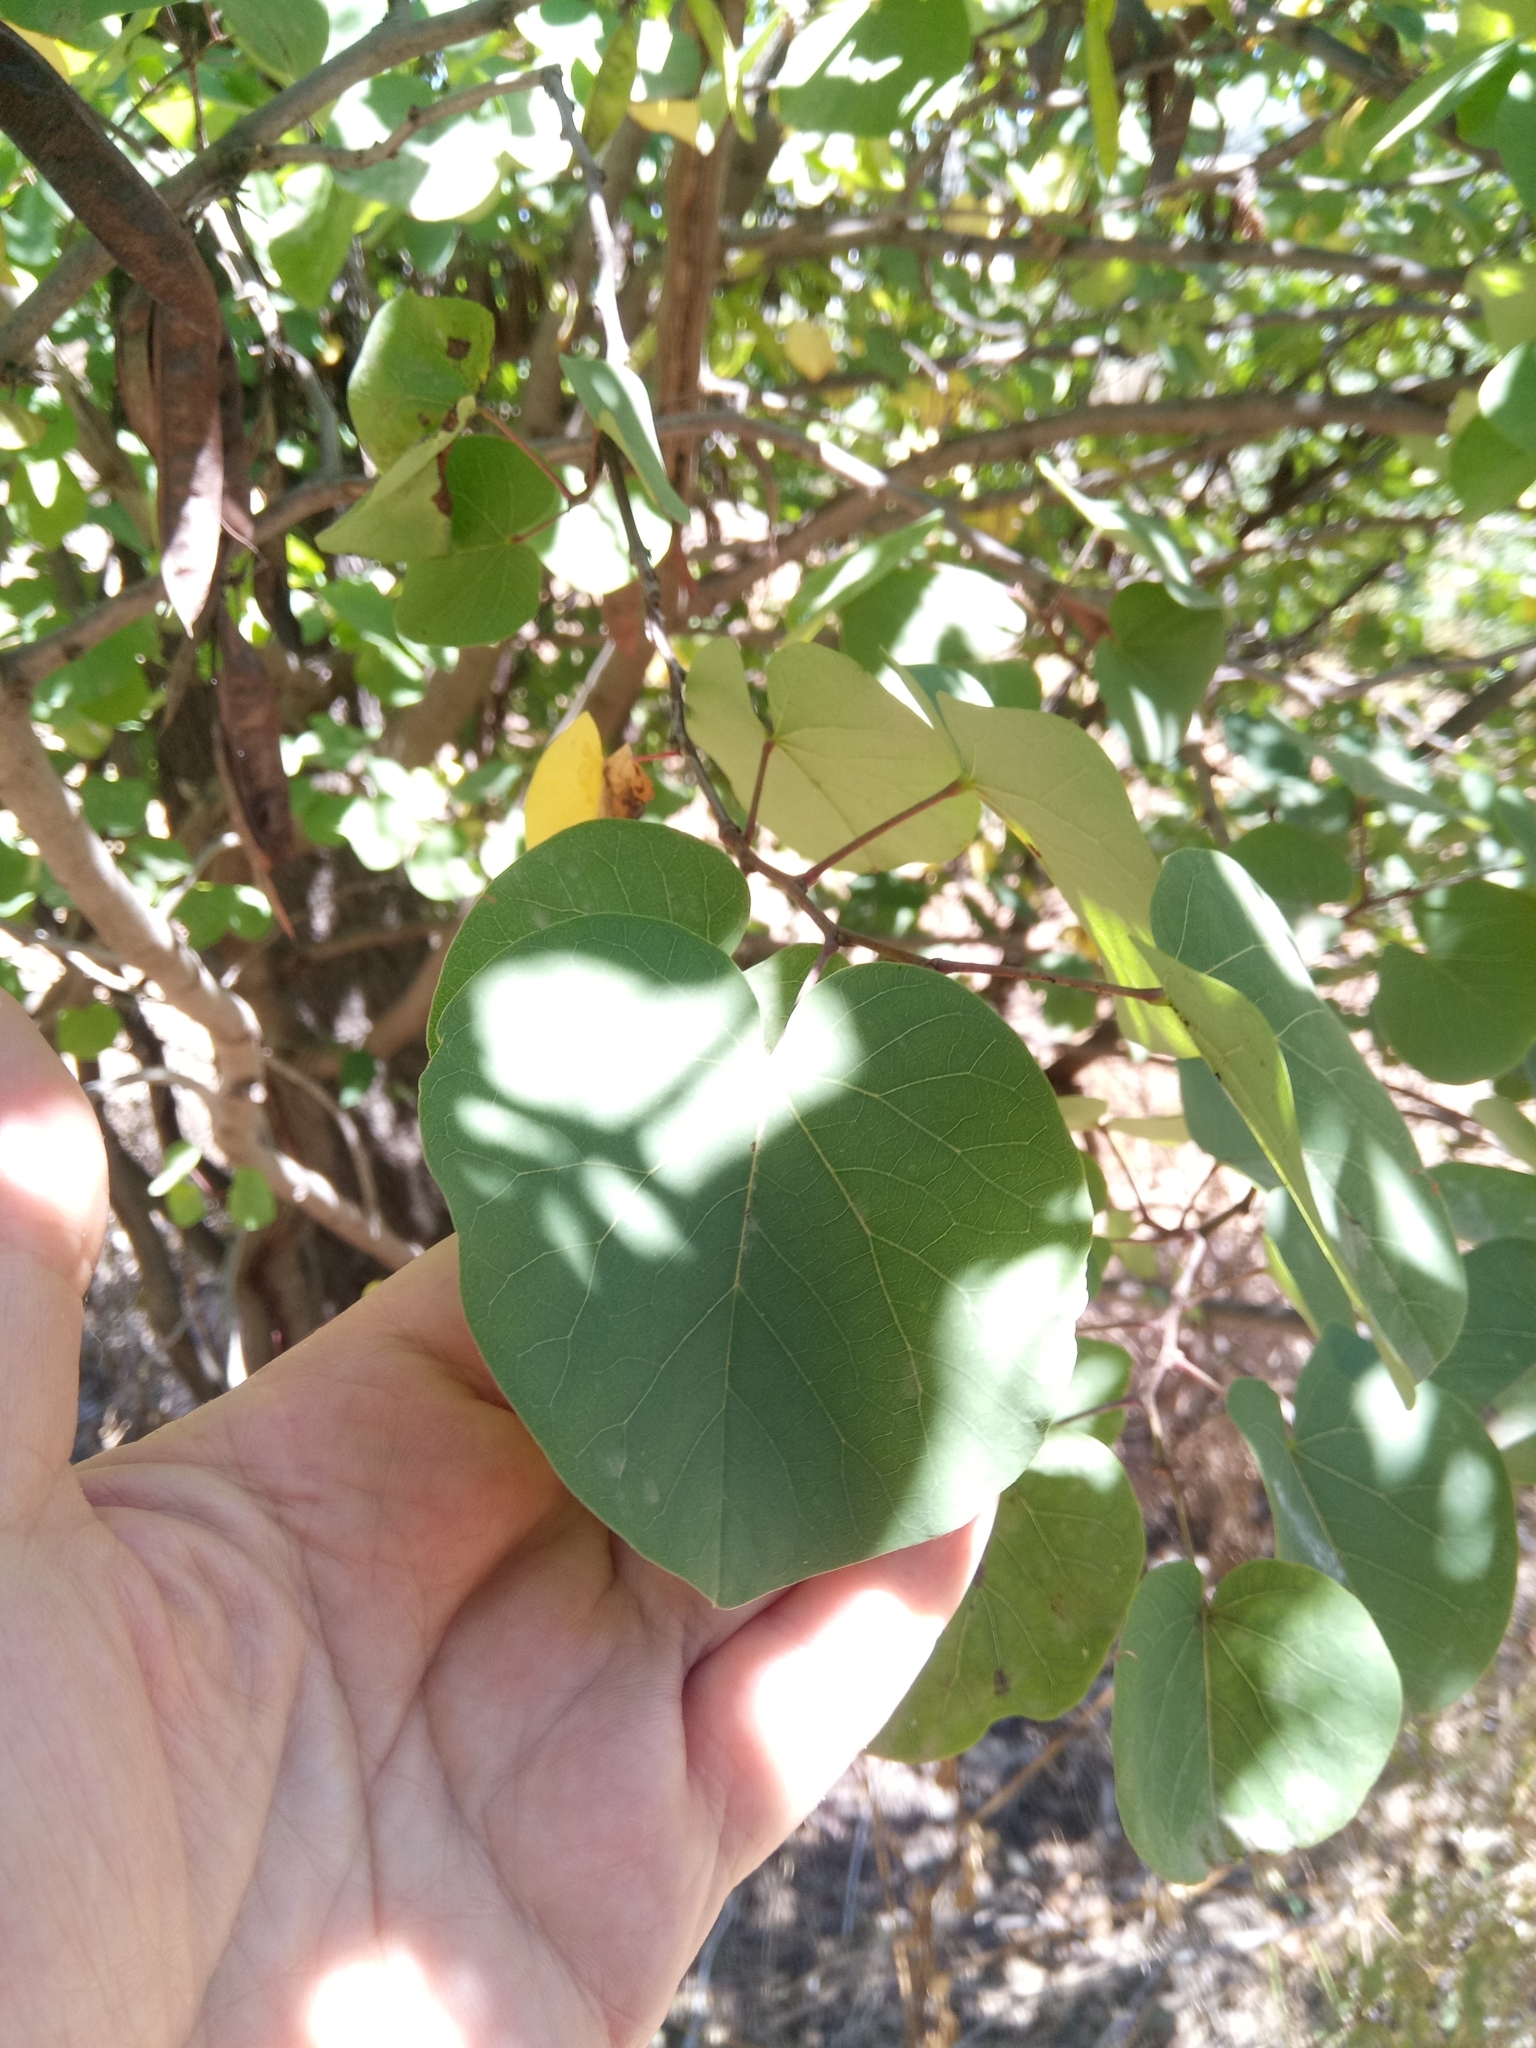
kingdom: Plantae
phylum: Tracheophyta
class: Magnoliopsida
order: Fabales
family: Fabaceae
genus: Cercis
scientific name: Cercis siliquastrum
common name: Judas tree
